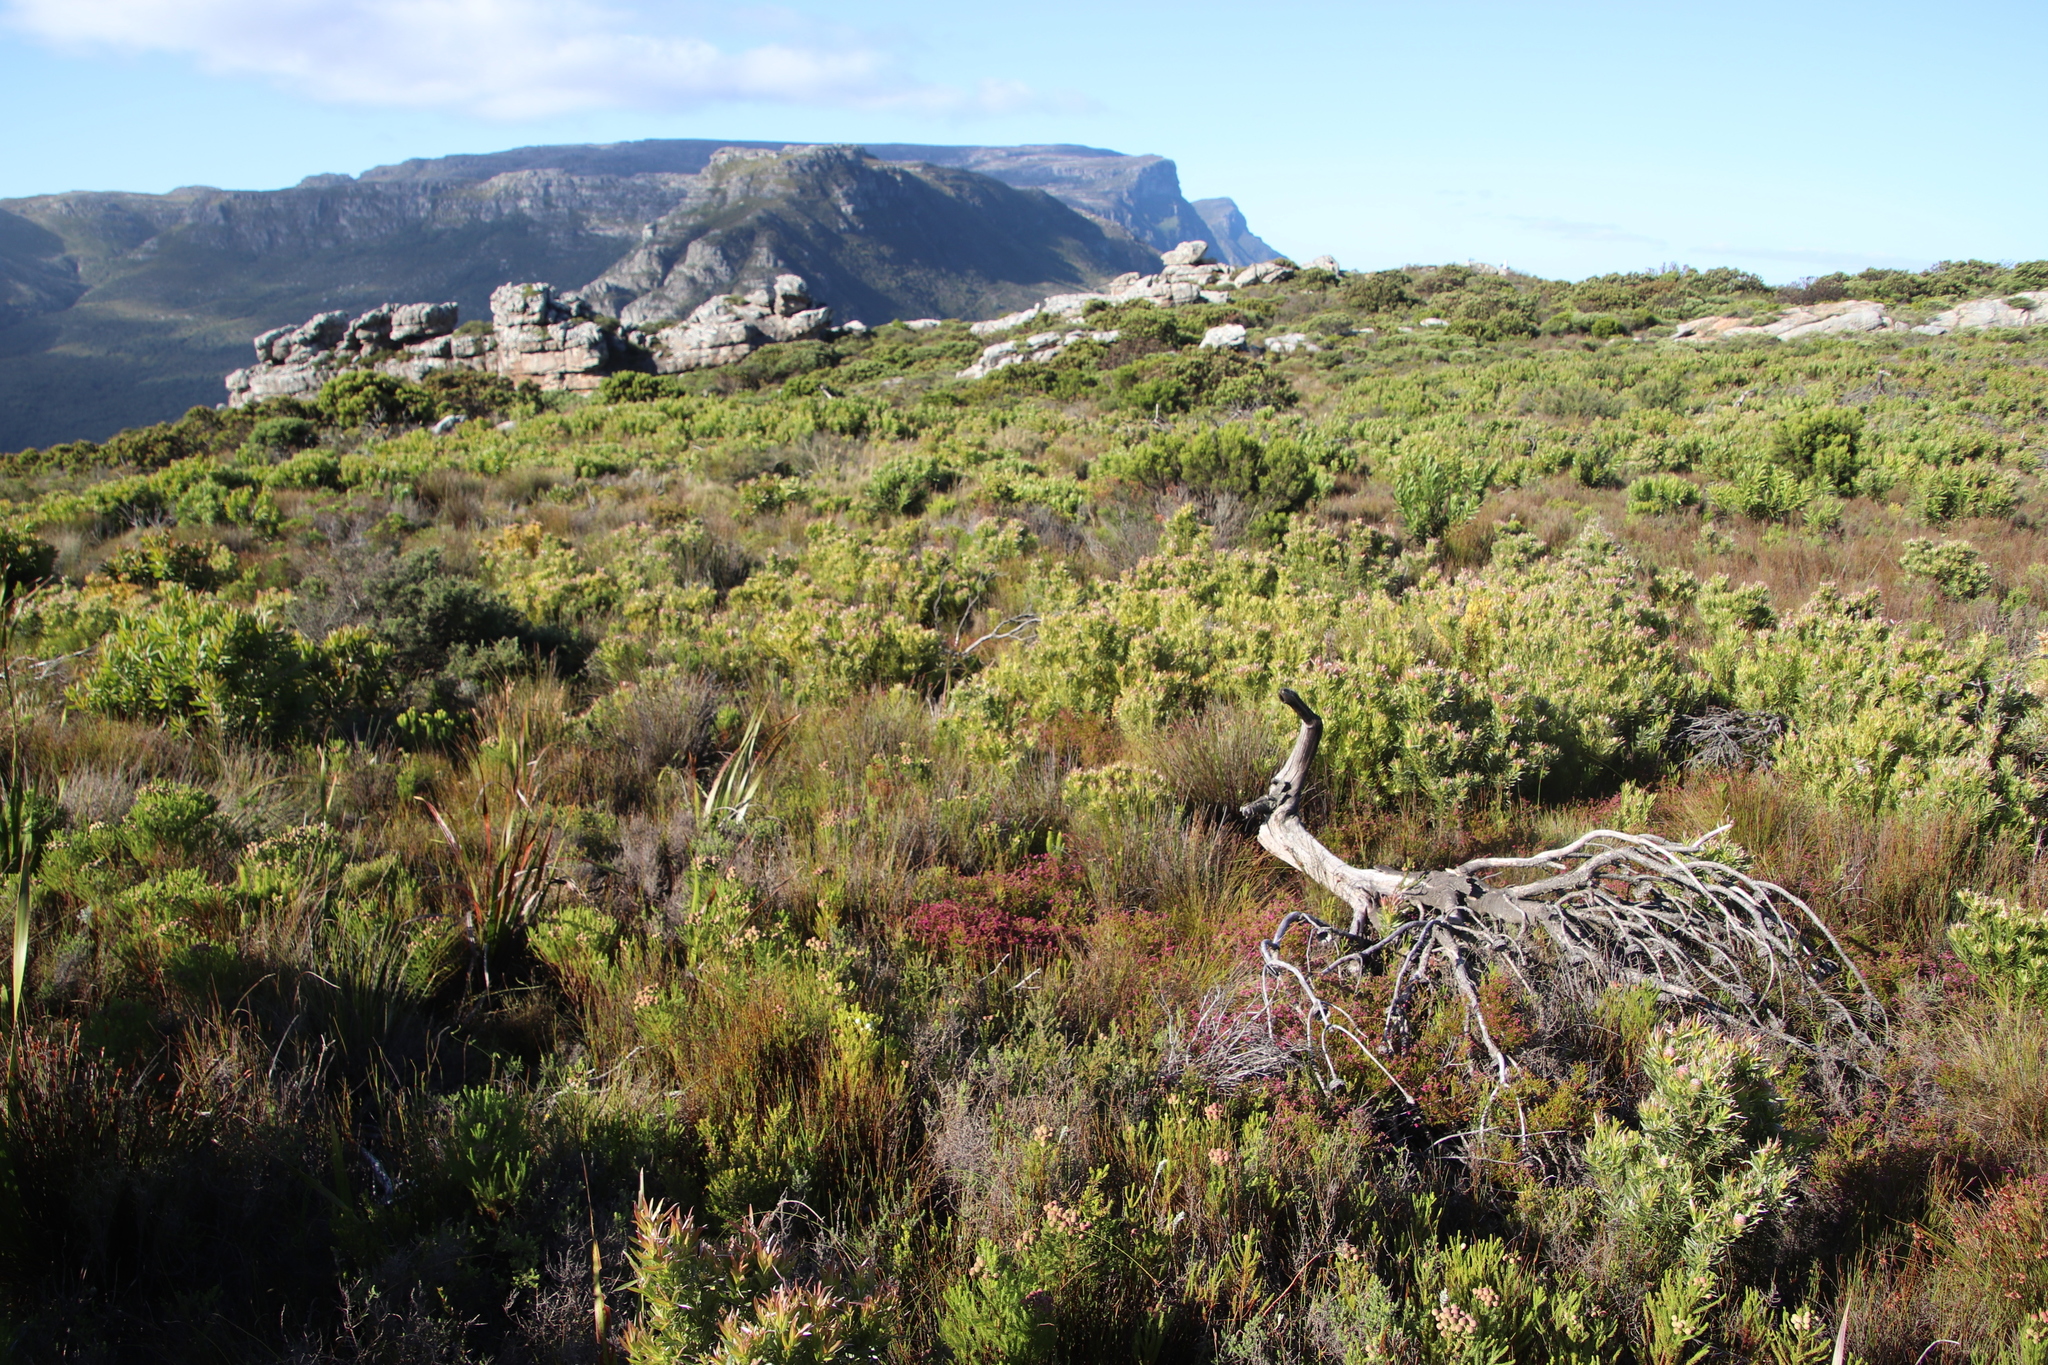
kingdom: Plantae
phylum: Tracheophyta
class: Magnoliopsida
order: Ericales
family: Ericaceae
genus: Erica
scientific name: Erica multumbellifera
